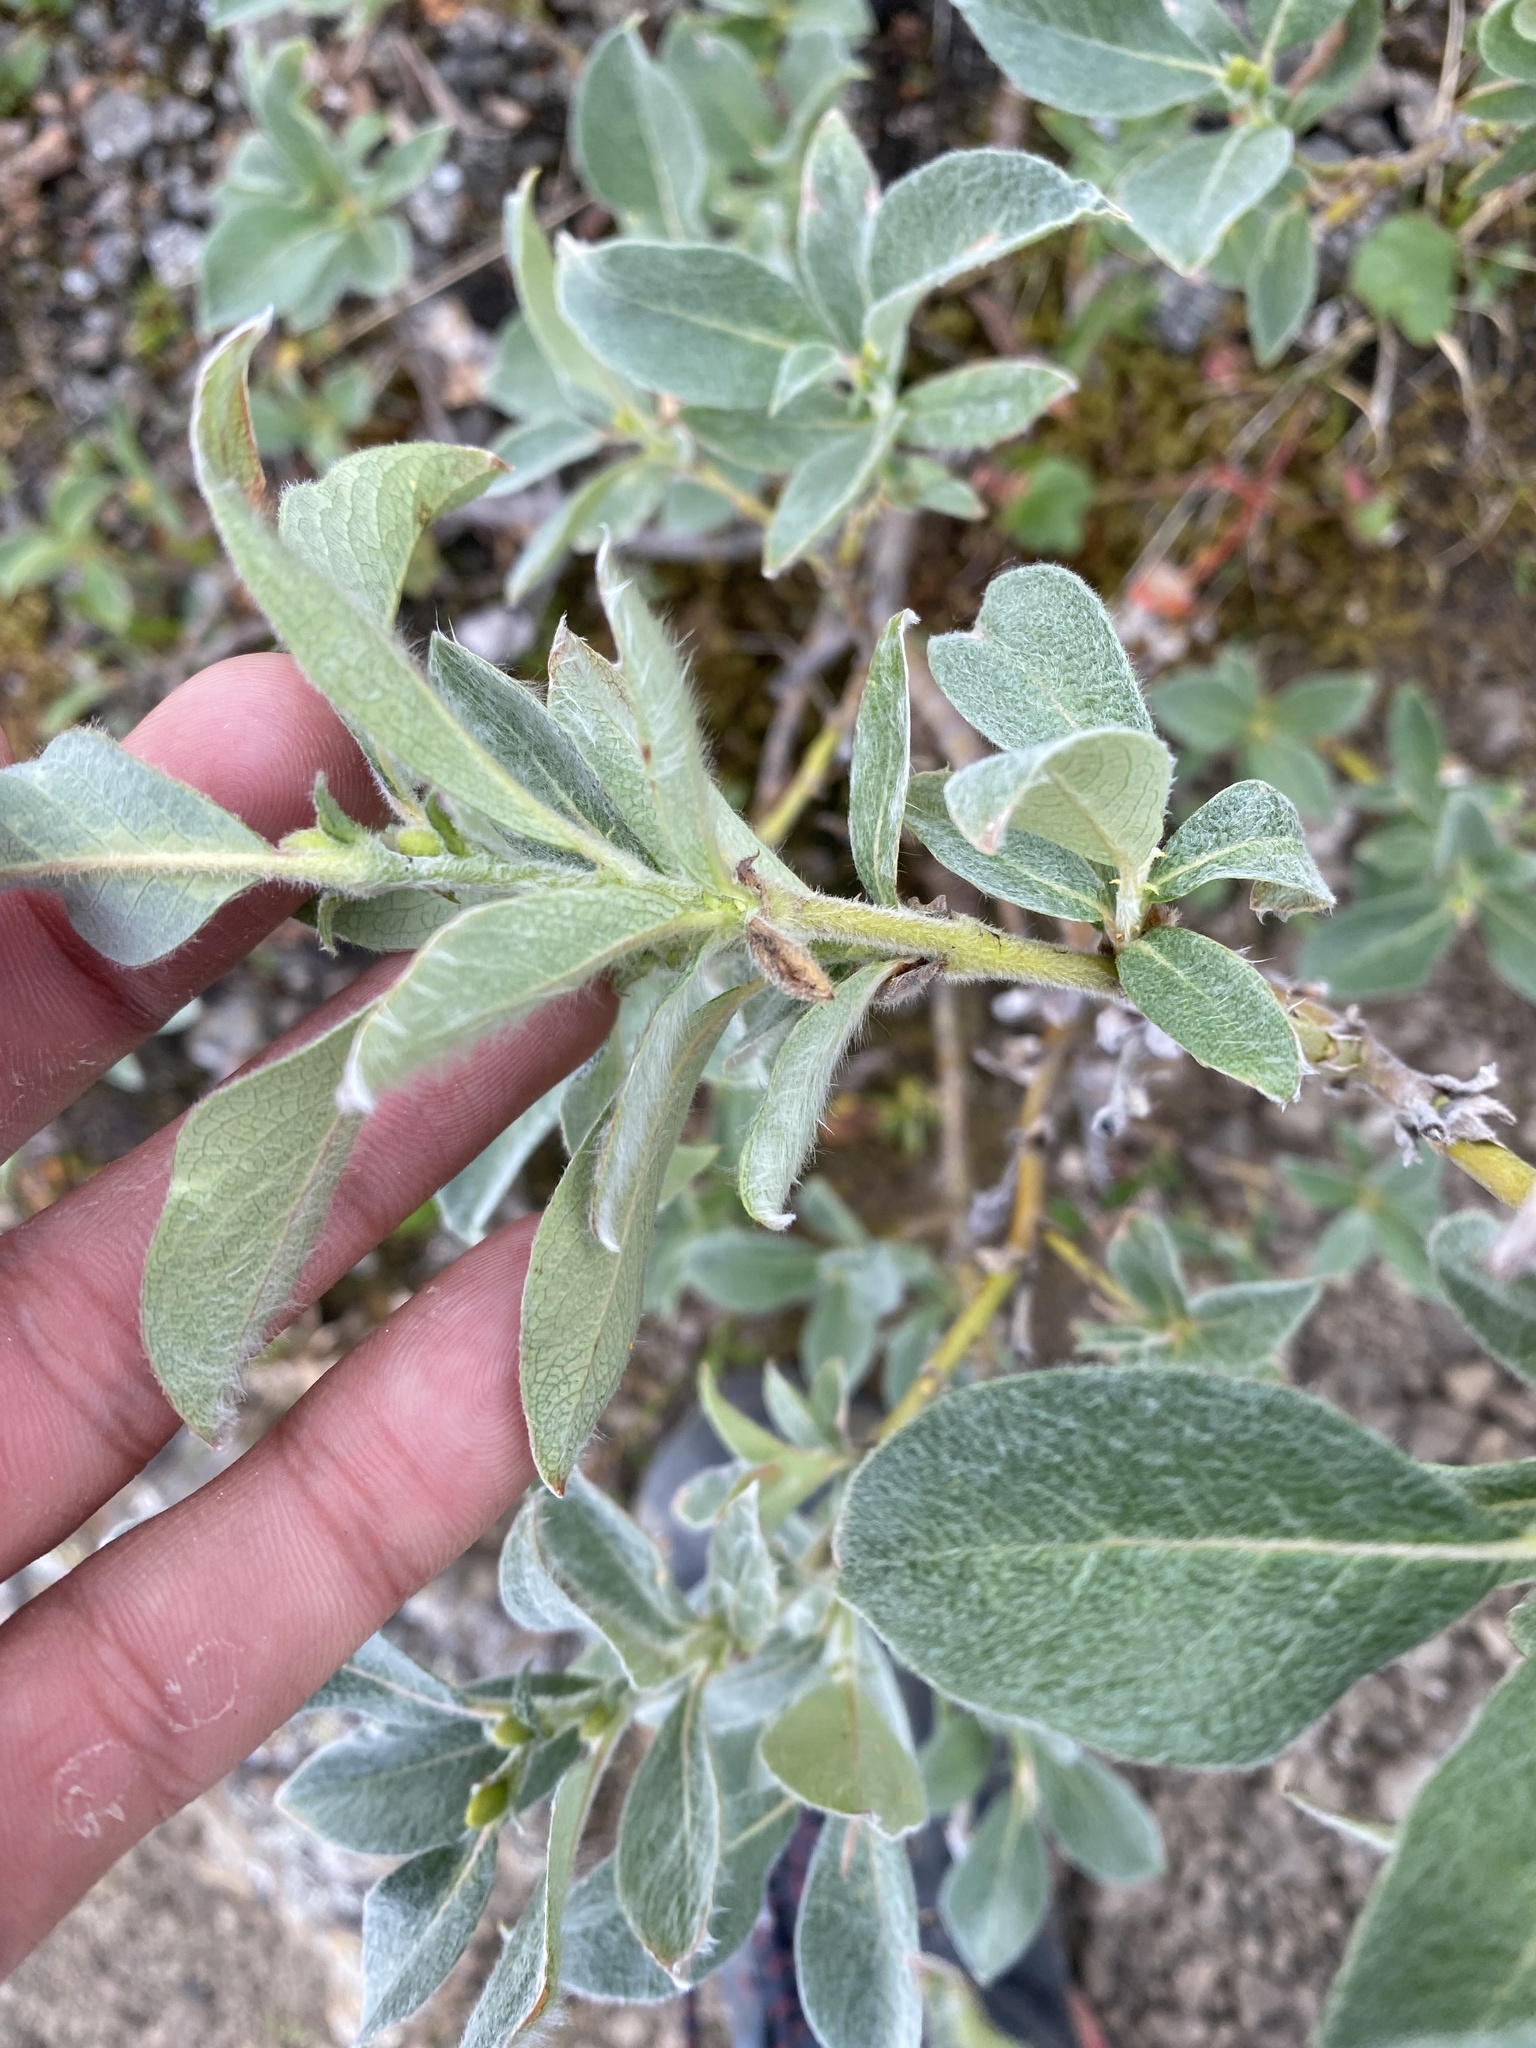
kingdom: Plantae
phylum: Tracheophyta
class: Magnoliopsida
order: Malpighiales
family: Salicaceae
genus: Salix
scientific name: Salix glauca
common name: Glaucous willow
